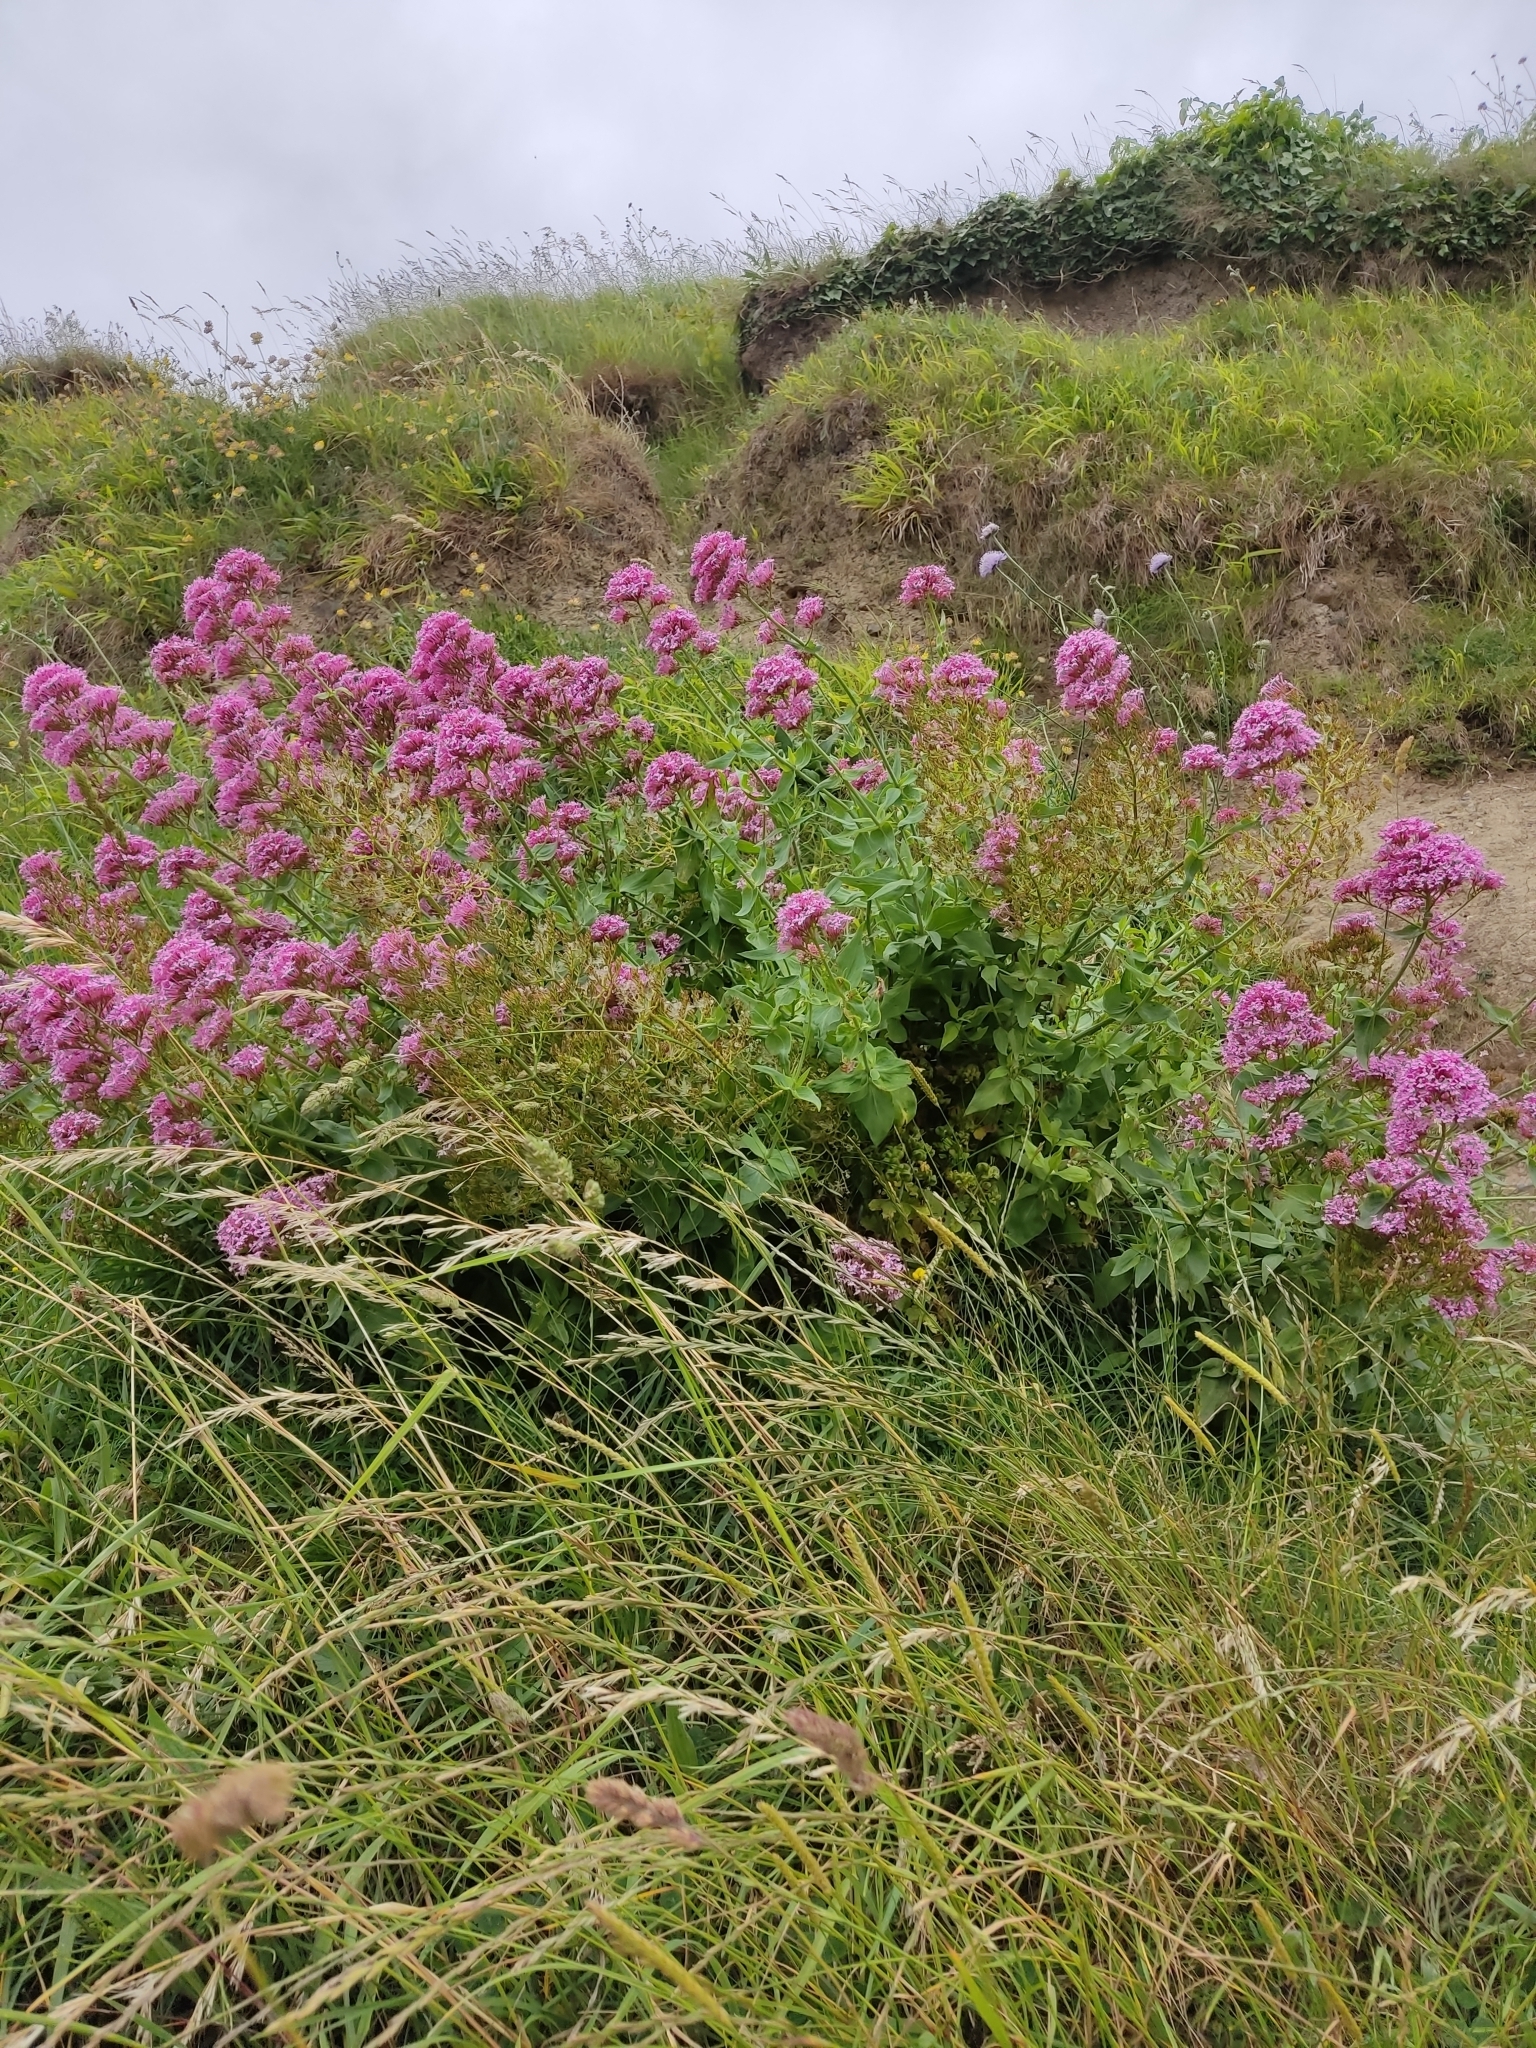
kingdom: Plantae
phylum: Tracheophyta
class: Magnoliopsida
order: Dipsacales
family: Caprifoliaceae
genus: Centranthus
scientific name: Centranthus ruber
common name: Red valerian
